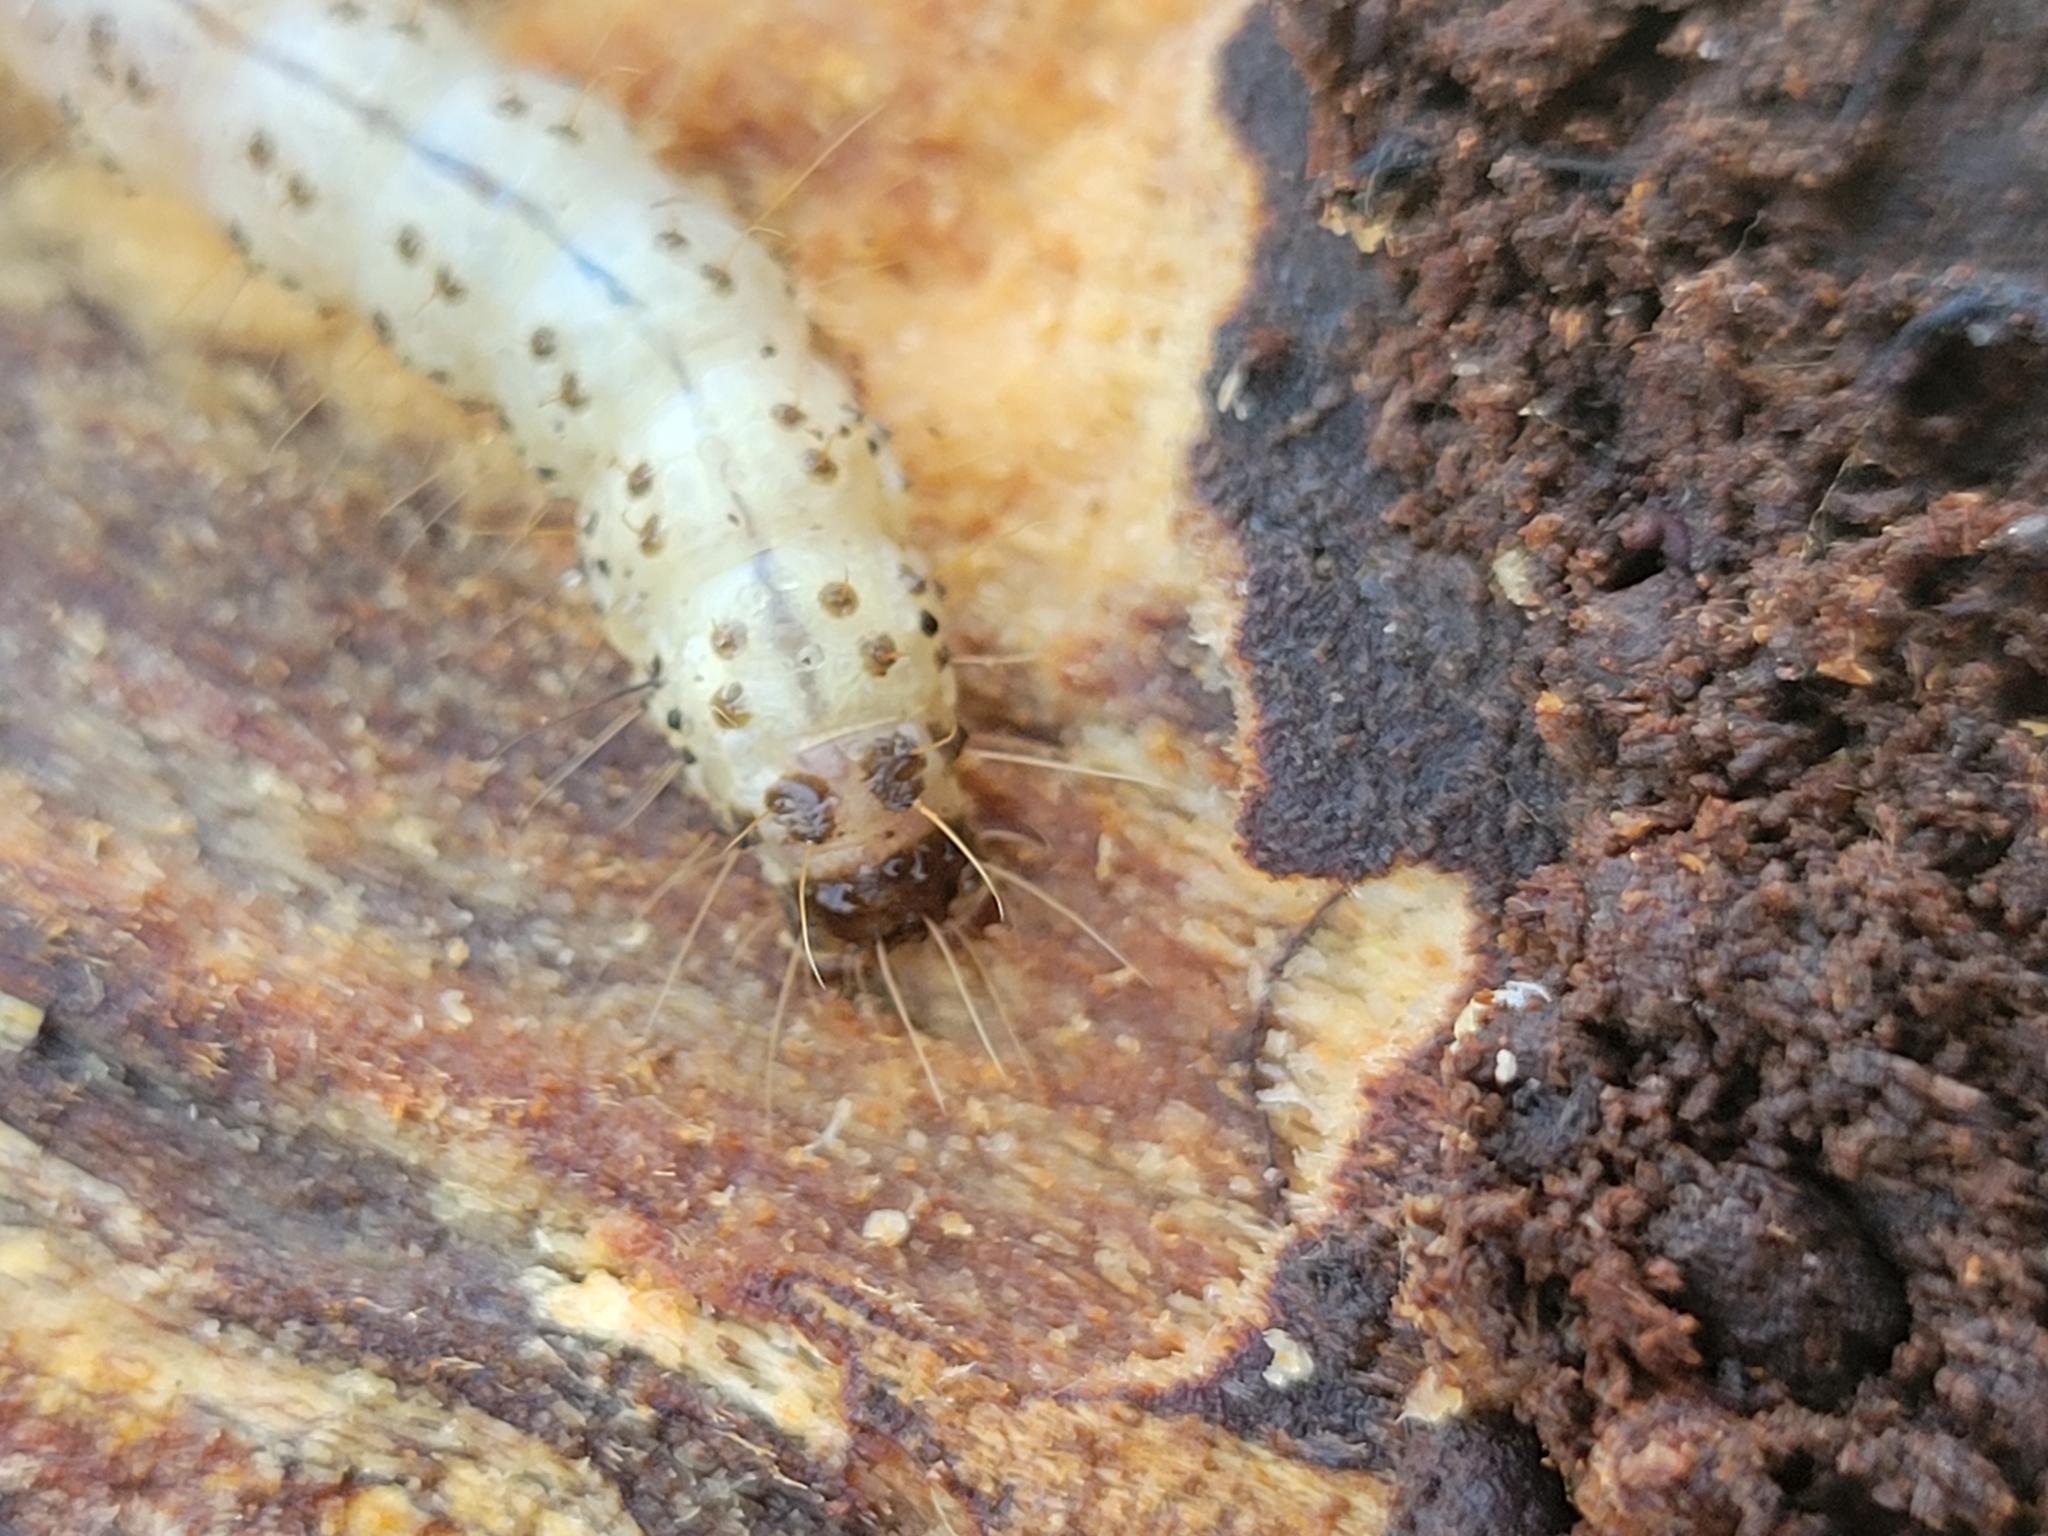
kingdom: Animalia
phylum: Arthropoda
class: Insecta
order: Lepidoptera
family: Erebidae
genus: Scolecocampa
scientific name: Scolecocampa liburna
